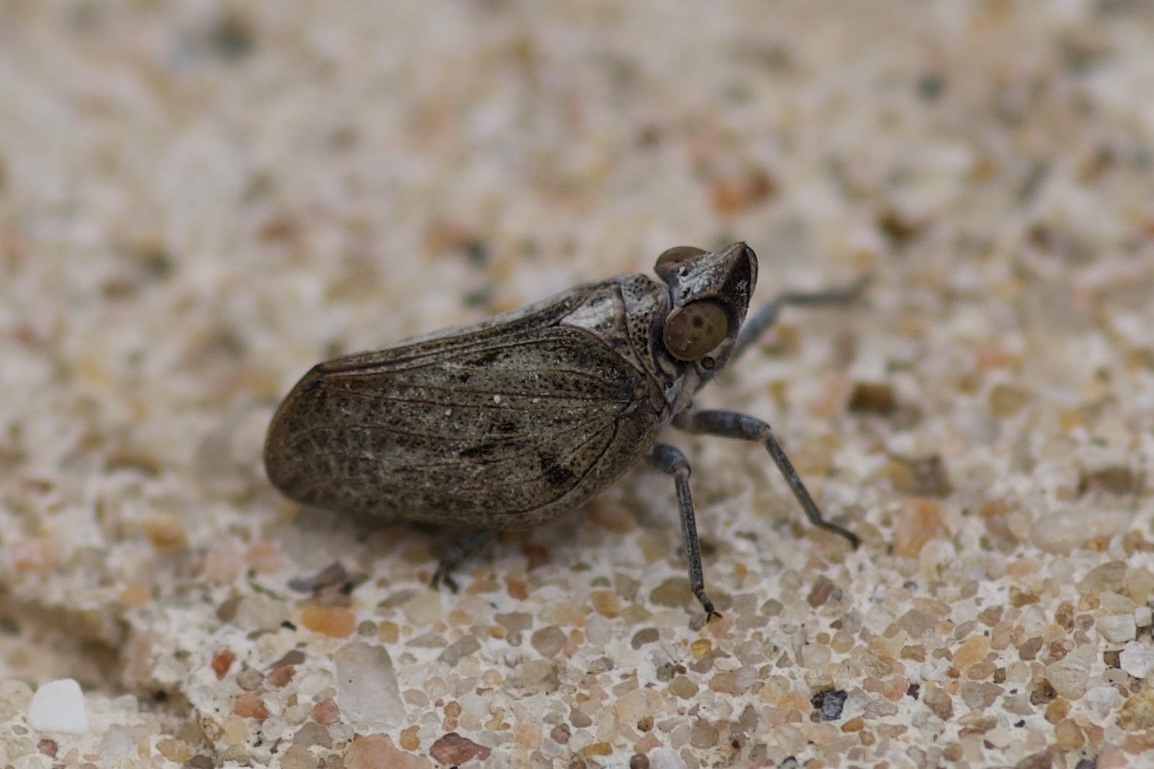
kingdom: Animalia
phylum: Arthropoda
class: Insecta
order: Hemiptera
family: Issidae
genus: Fowlerium
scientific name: Fowlerium acutum
